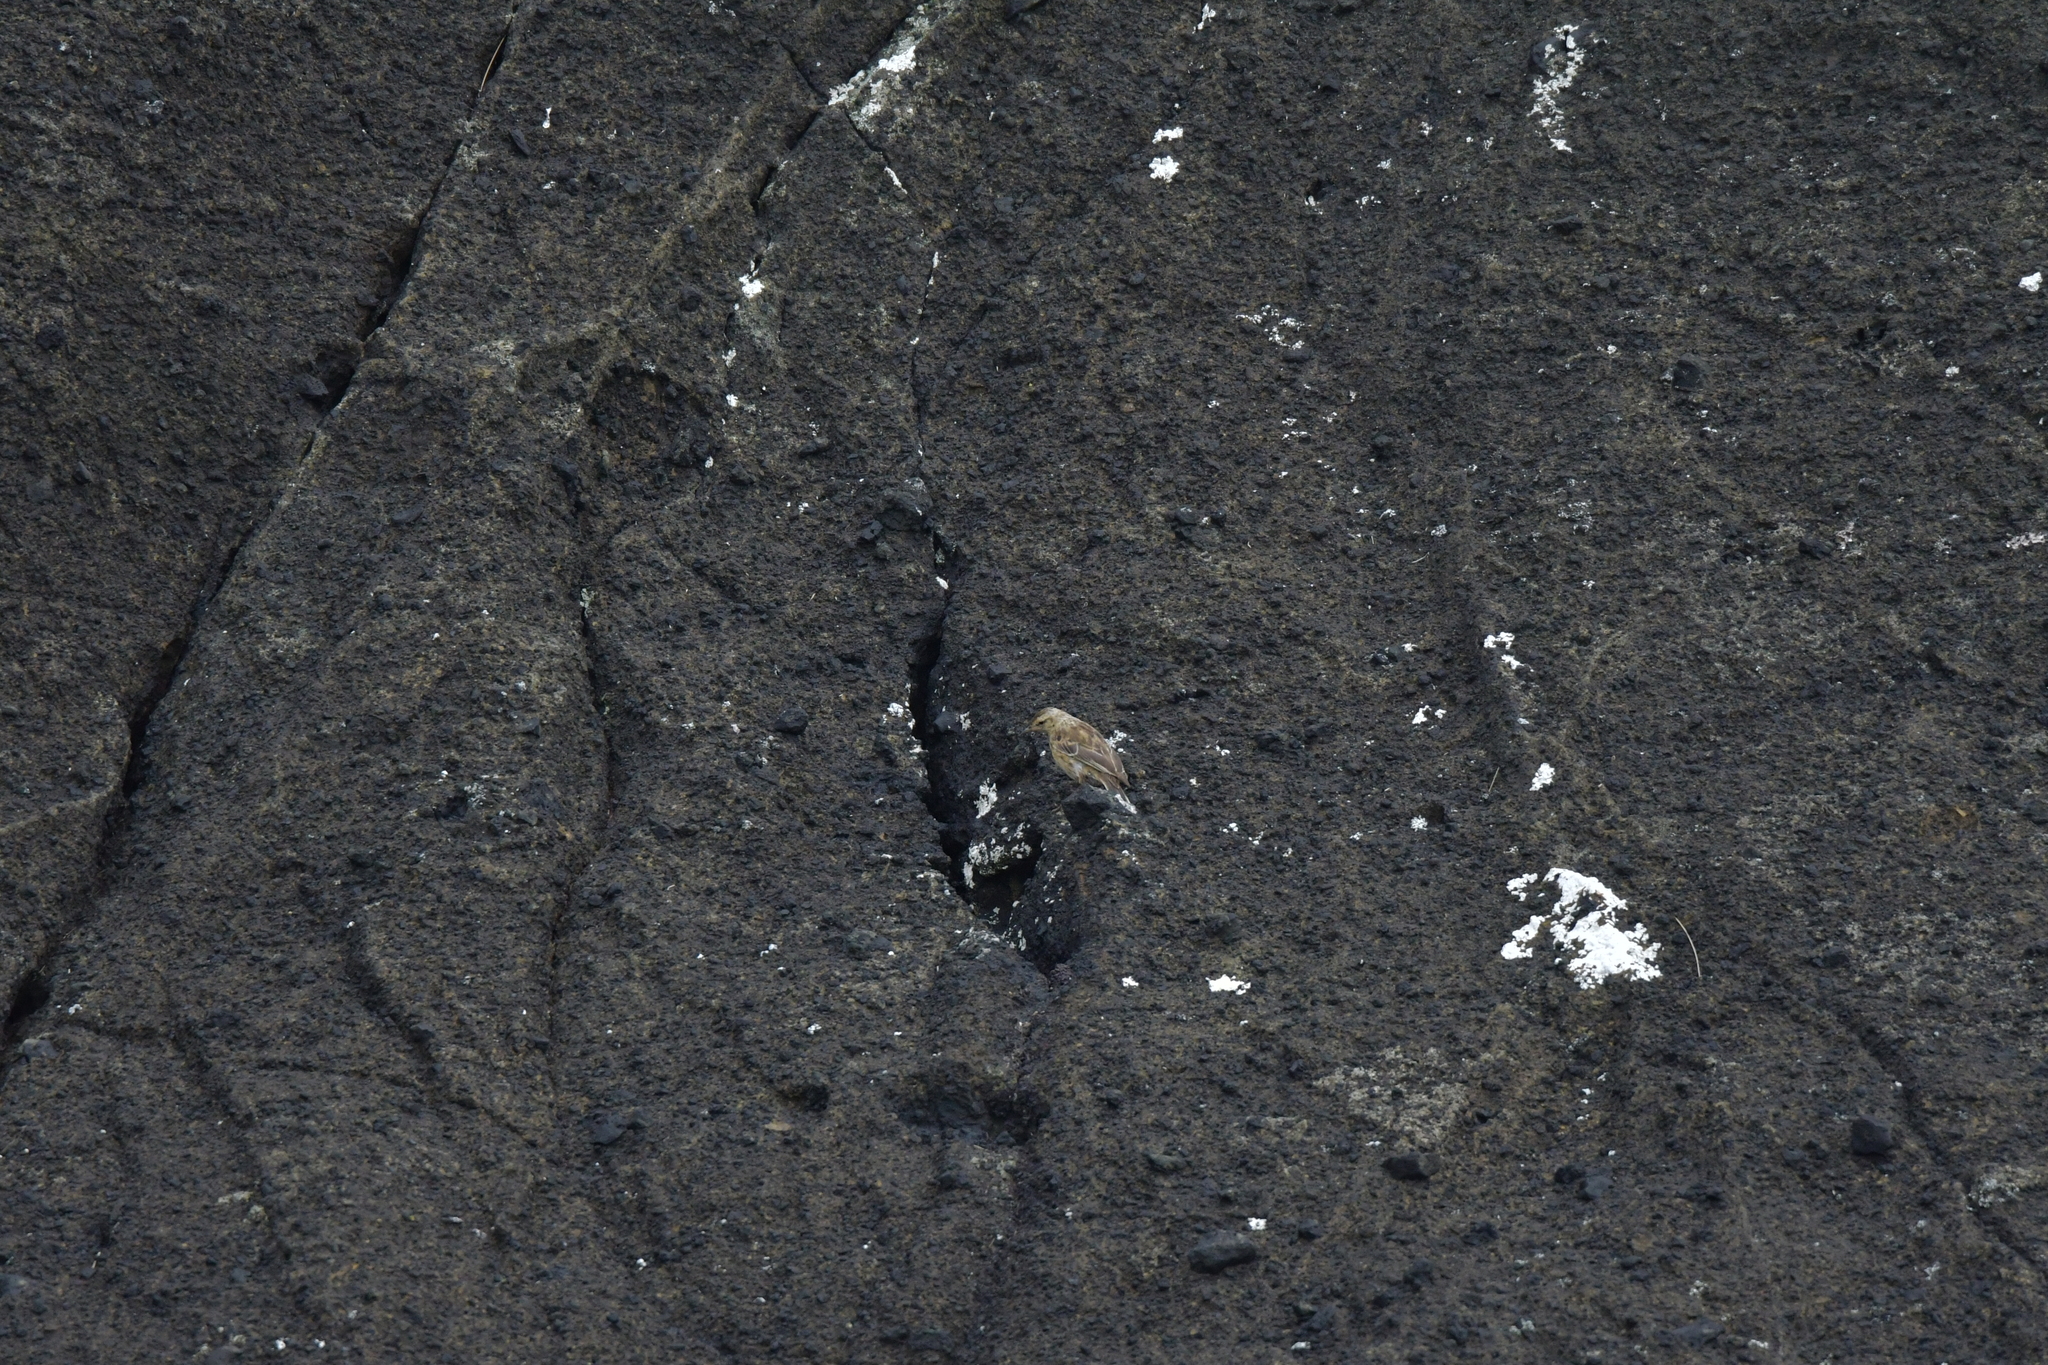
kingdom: Animalia
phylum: Chordata
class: Aves
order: Passeriformes
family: Motacillidae
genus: Anthus
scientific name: Anthus novaeseelandiae
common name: New zealand pipit
